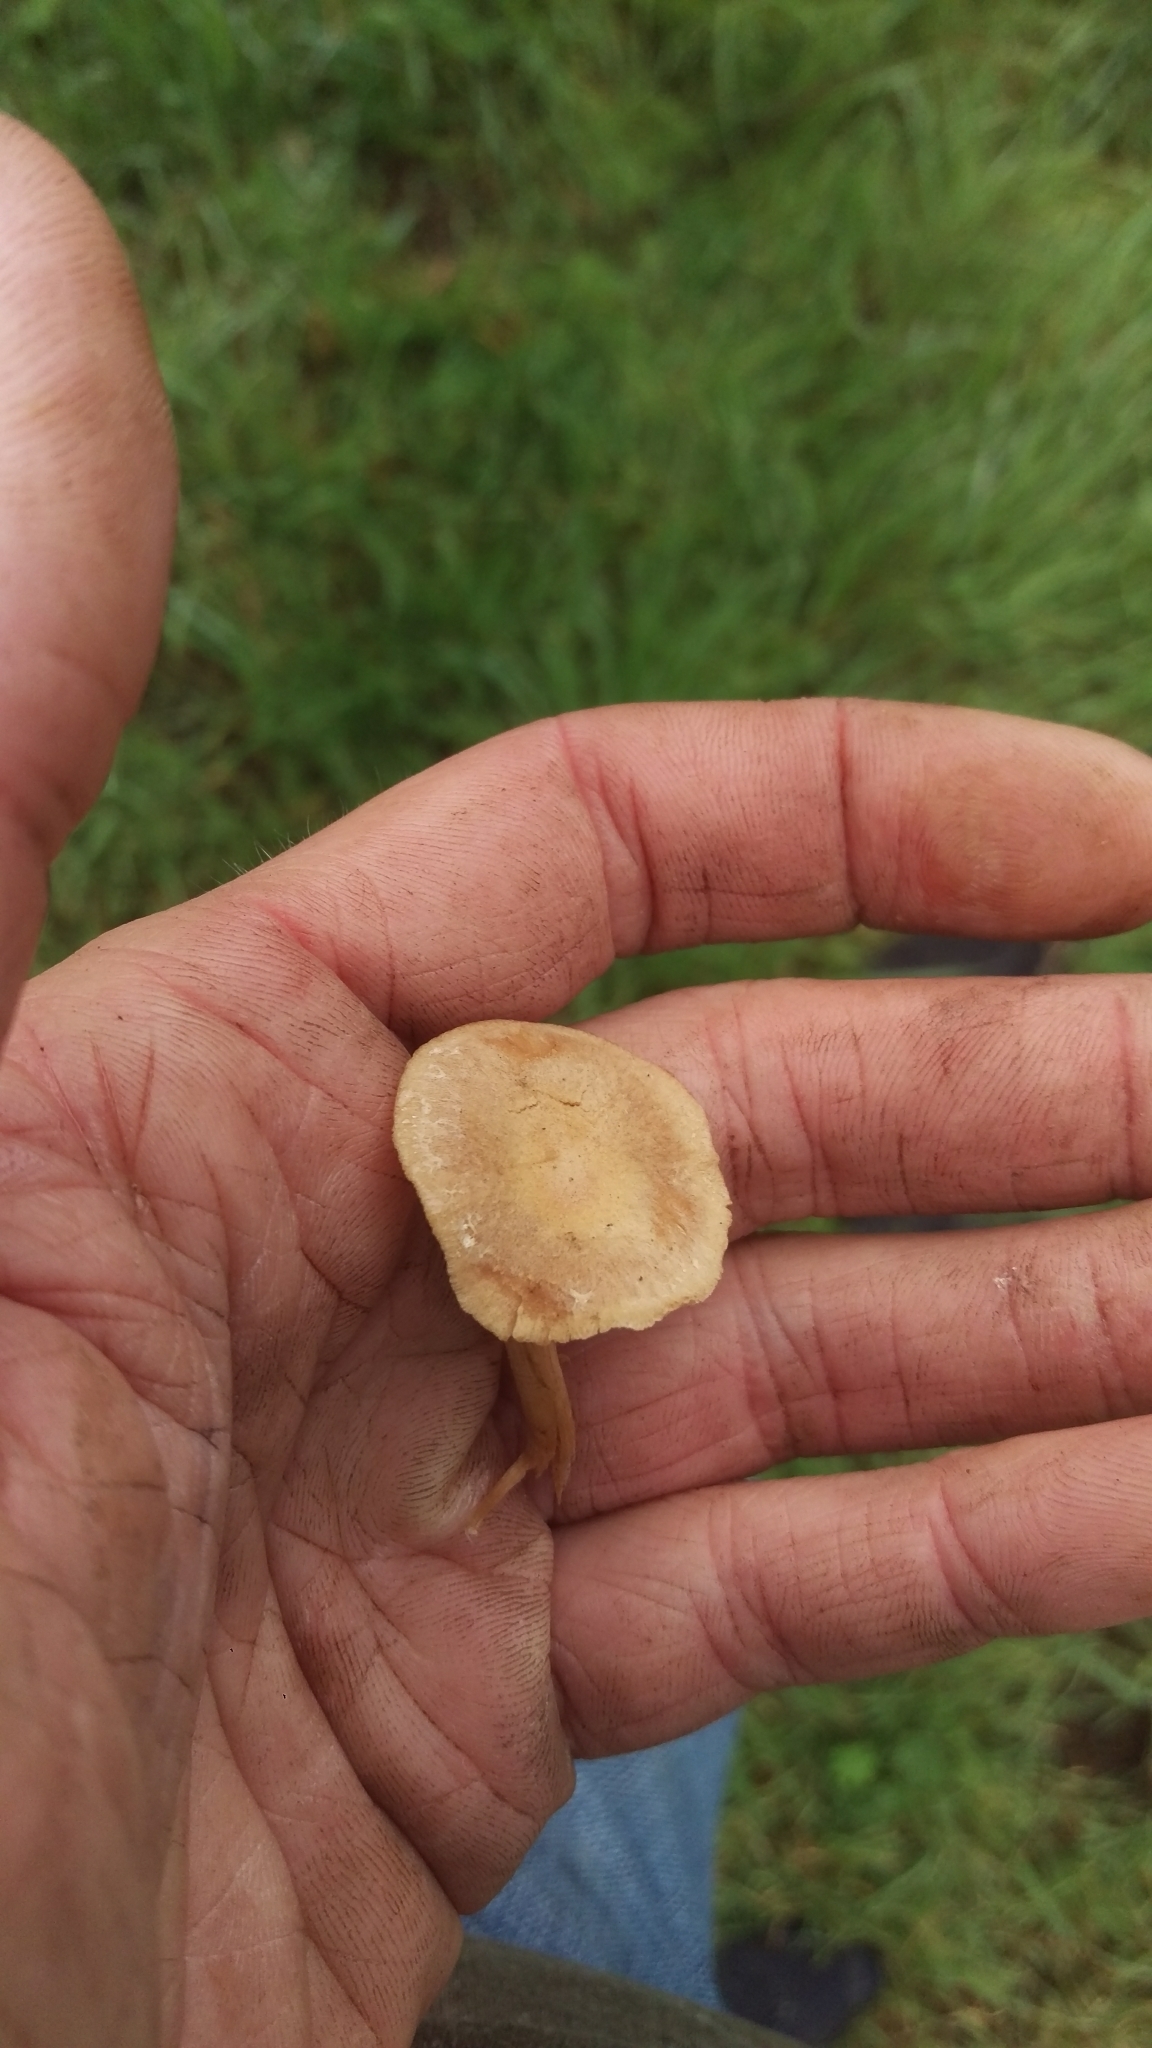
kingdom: Fungi
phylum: Basidiomycota
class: Agaricomycetes
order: Agaricales
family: Tubariaceae
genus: Tubaria
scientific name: Tubaria furfuracea
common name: Scurfy twiglet
